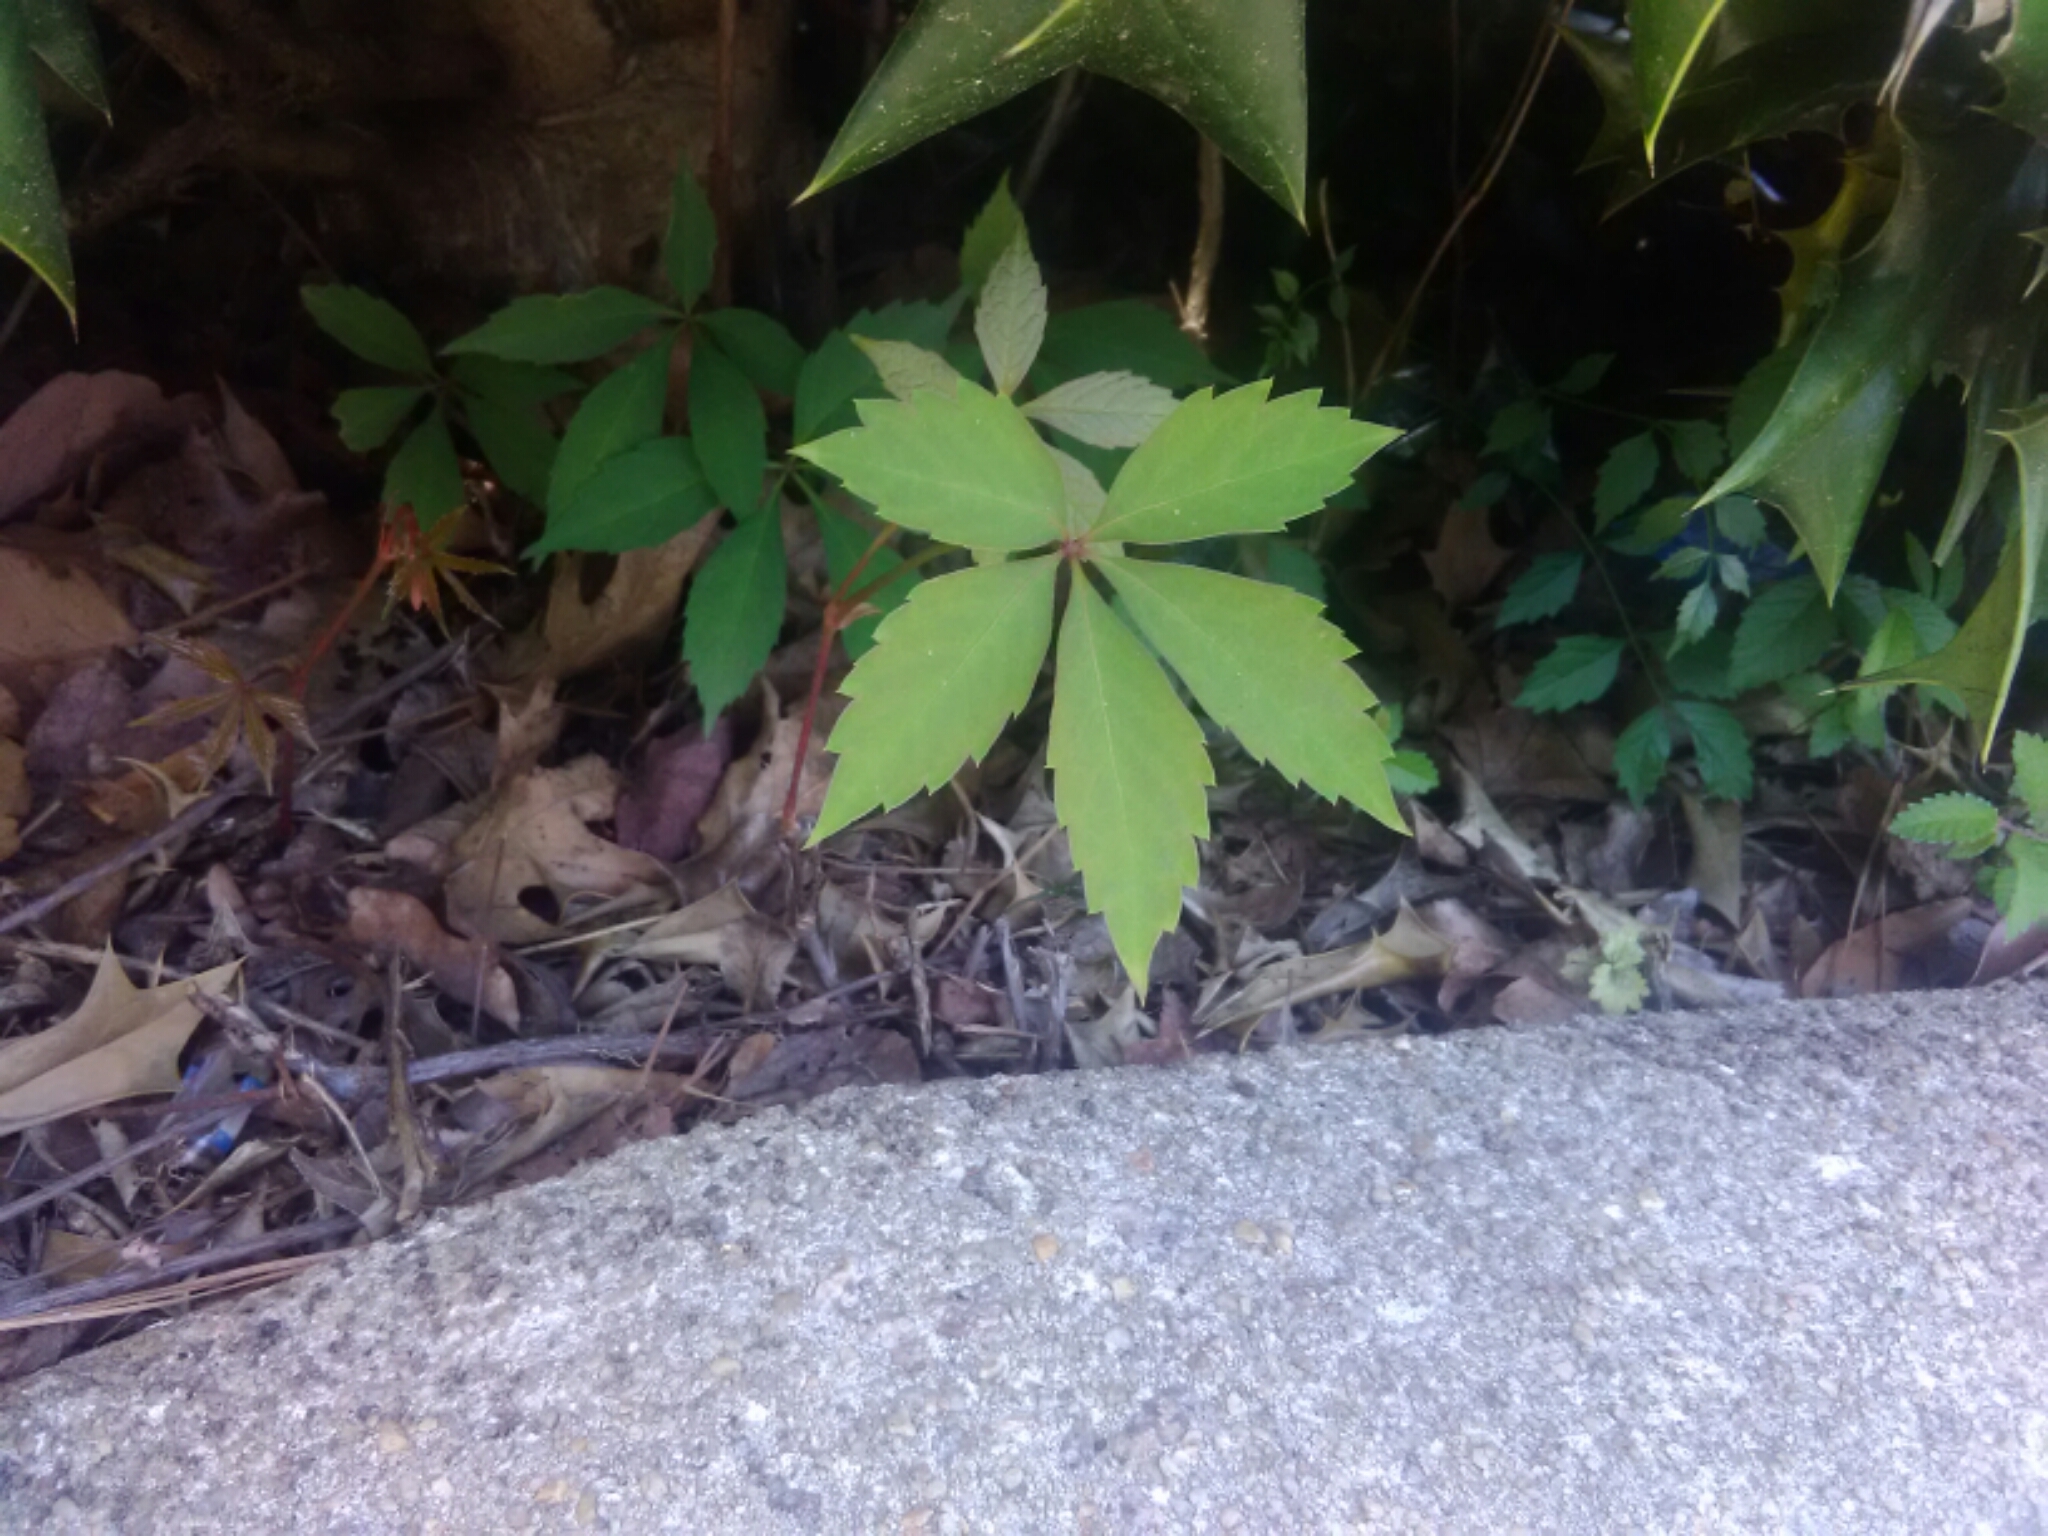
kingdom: Plantae
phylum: Tracheophyta
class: Magnoliopsida
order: Vitales
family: Vitaceae
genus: Parthenocissus
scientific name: Parthenocissus quinquefolia
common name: Virginia-creeper
